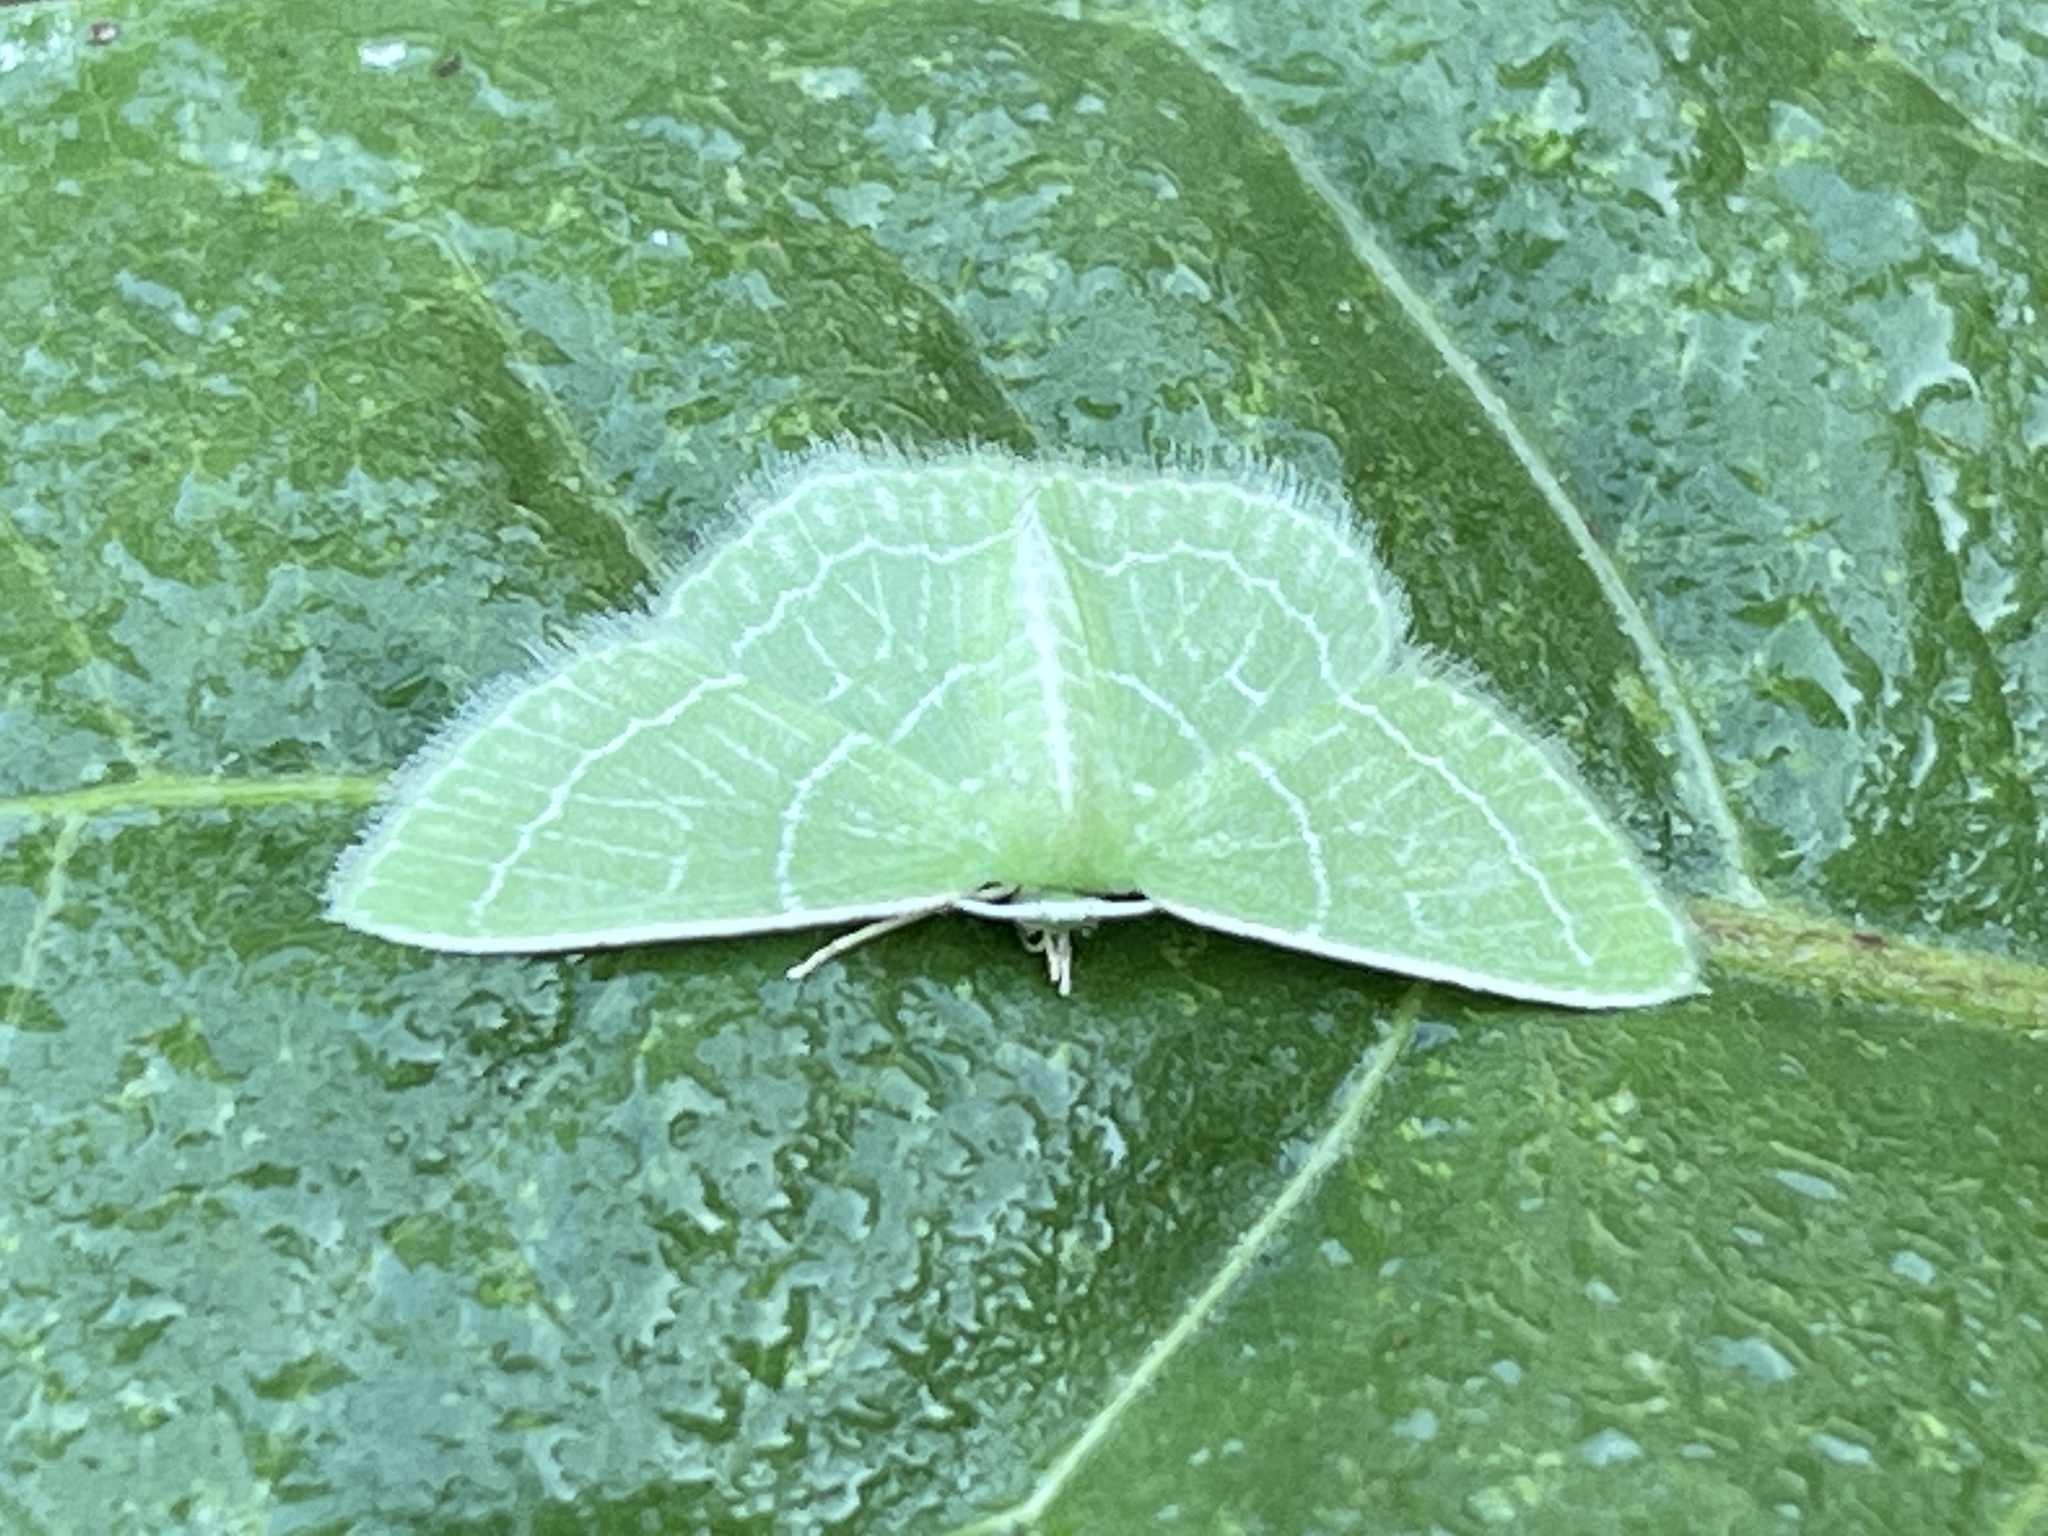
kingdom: Animalia
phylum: Arthropoda
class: Insecta
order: Lepidoptera
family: Geometridae
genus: Synchlora
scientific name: Synchlora frondaria
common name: Southern emerald
